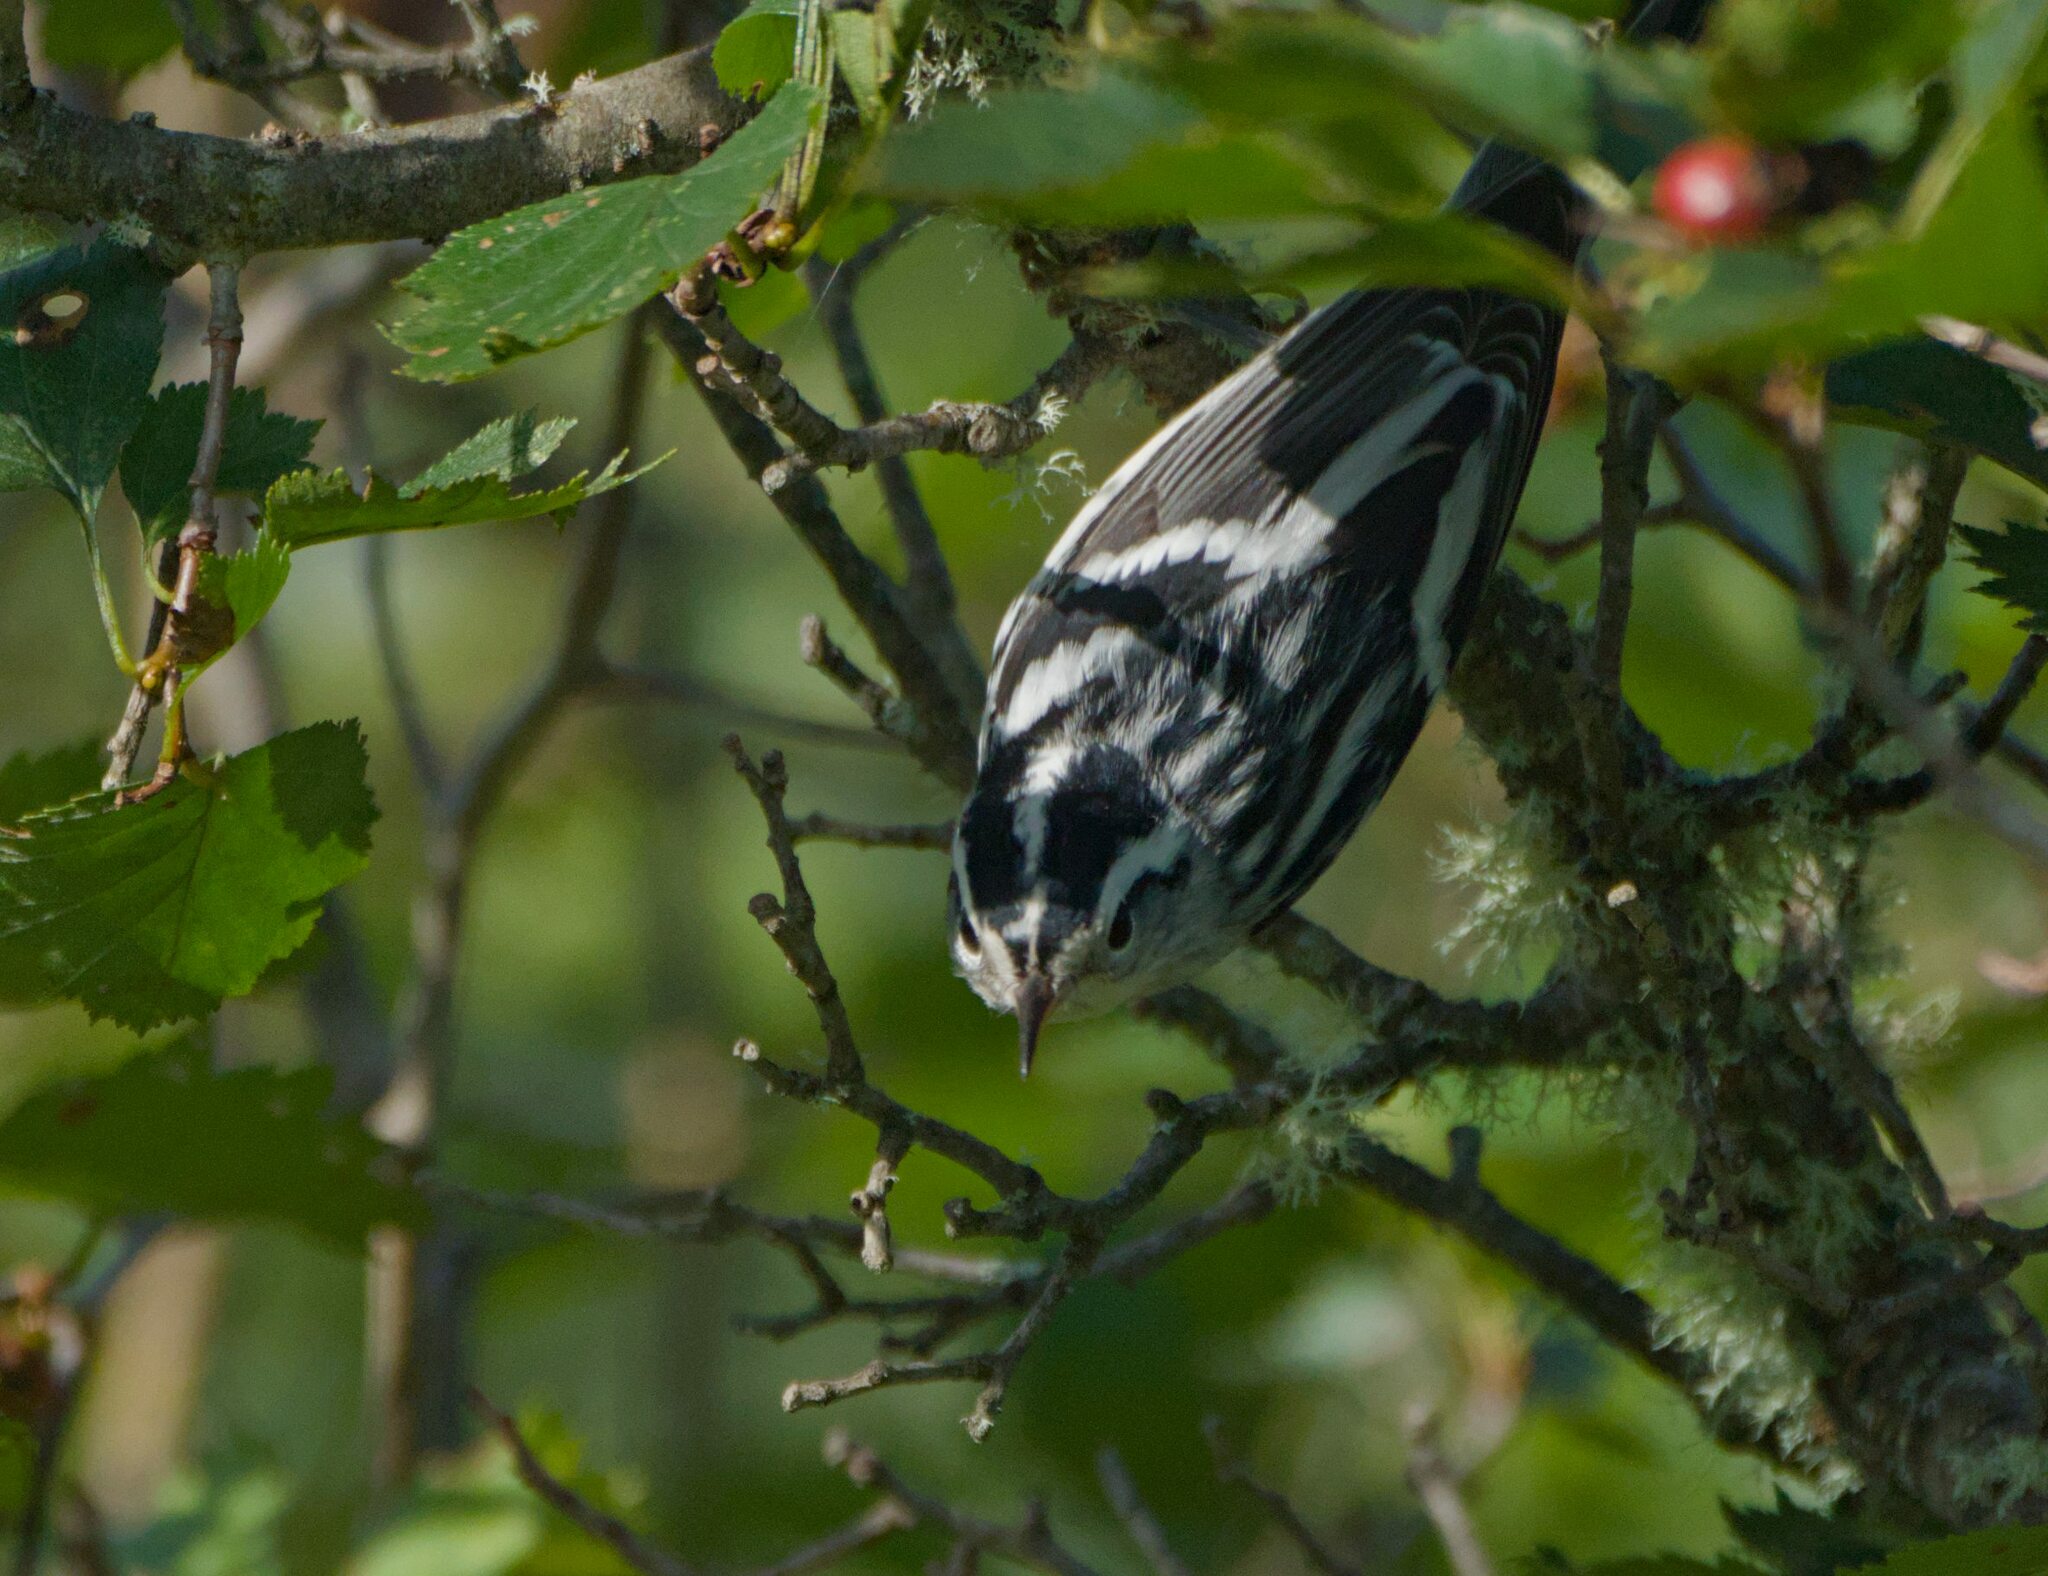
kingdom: Animalia
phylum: Chordata
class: Aves
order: Passeriformes
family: Parulidae
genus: Mniotilta
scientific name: Mniotilta varia
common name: Black-and-white warbler
